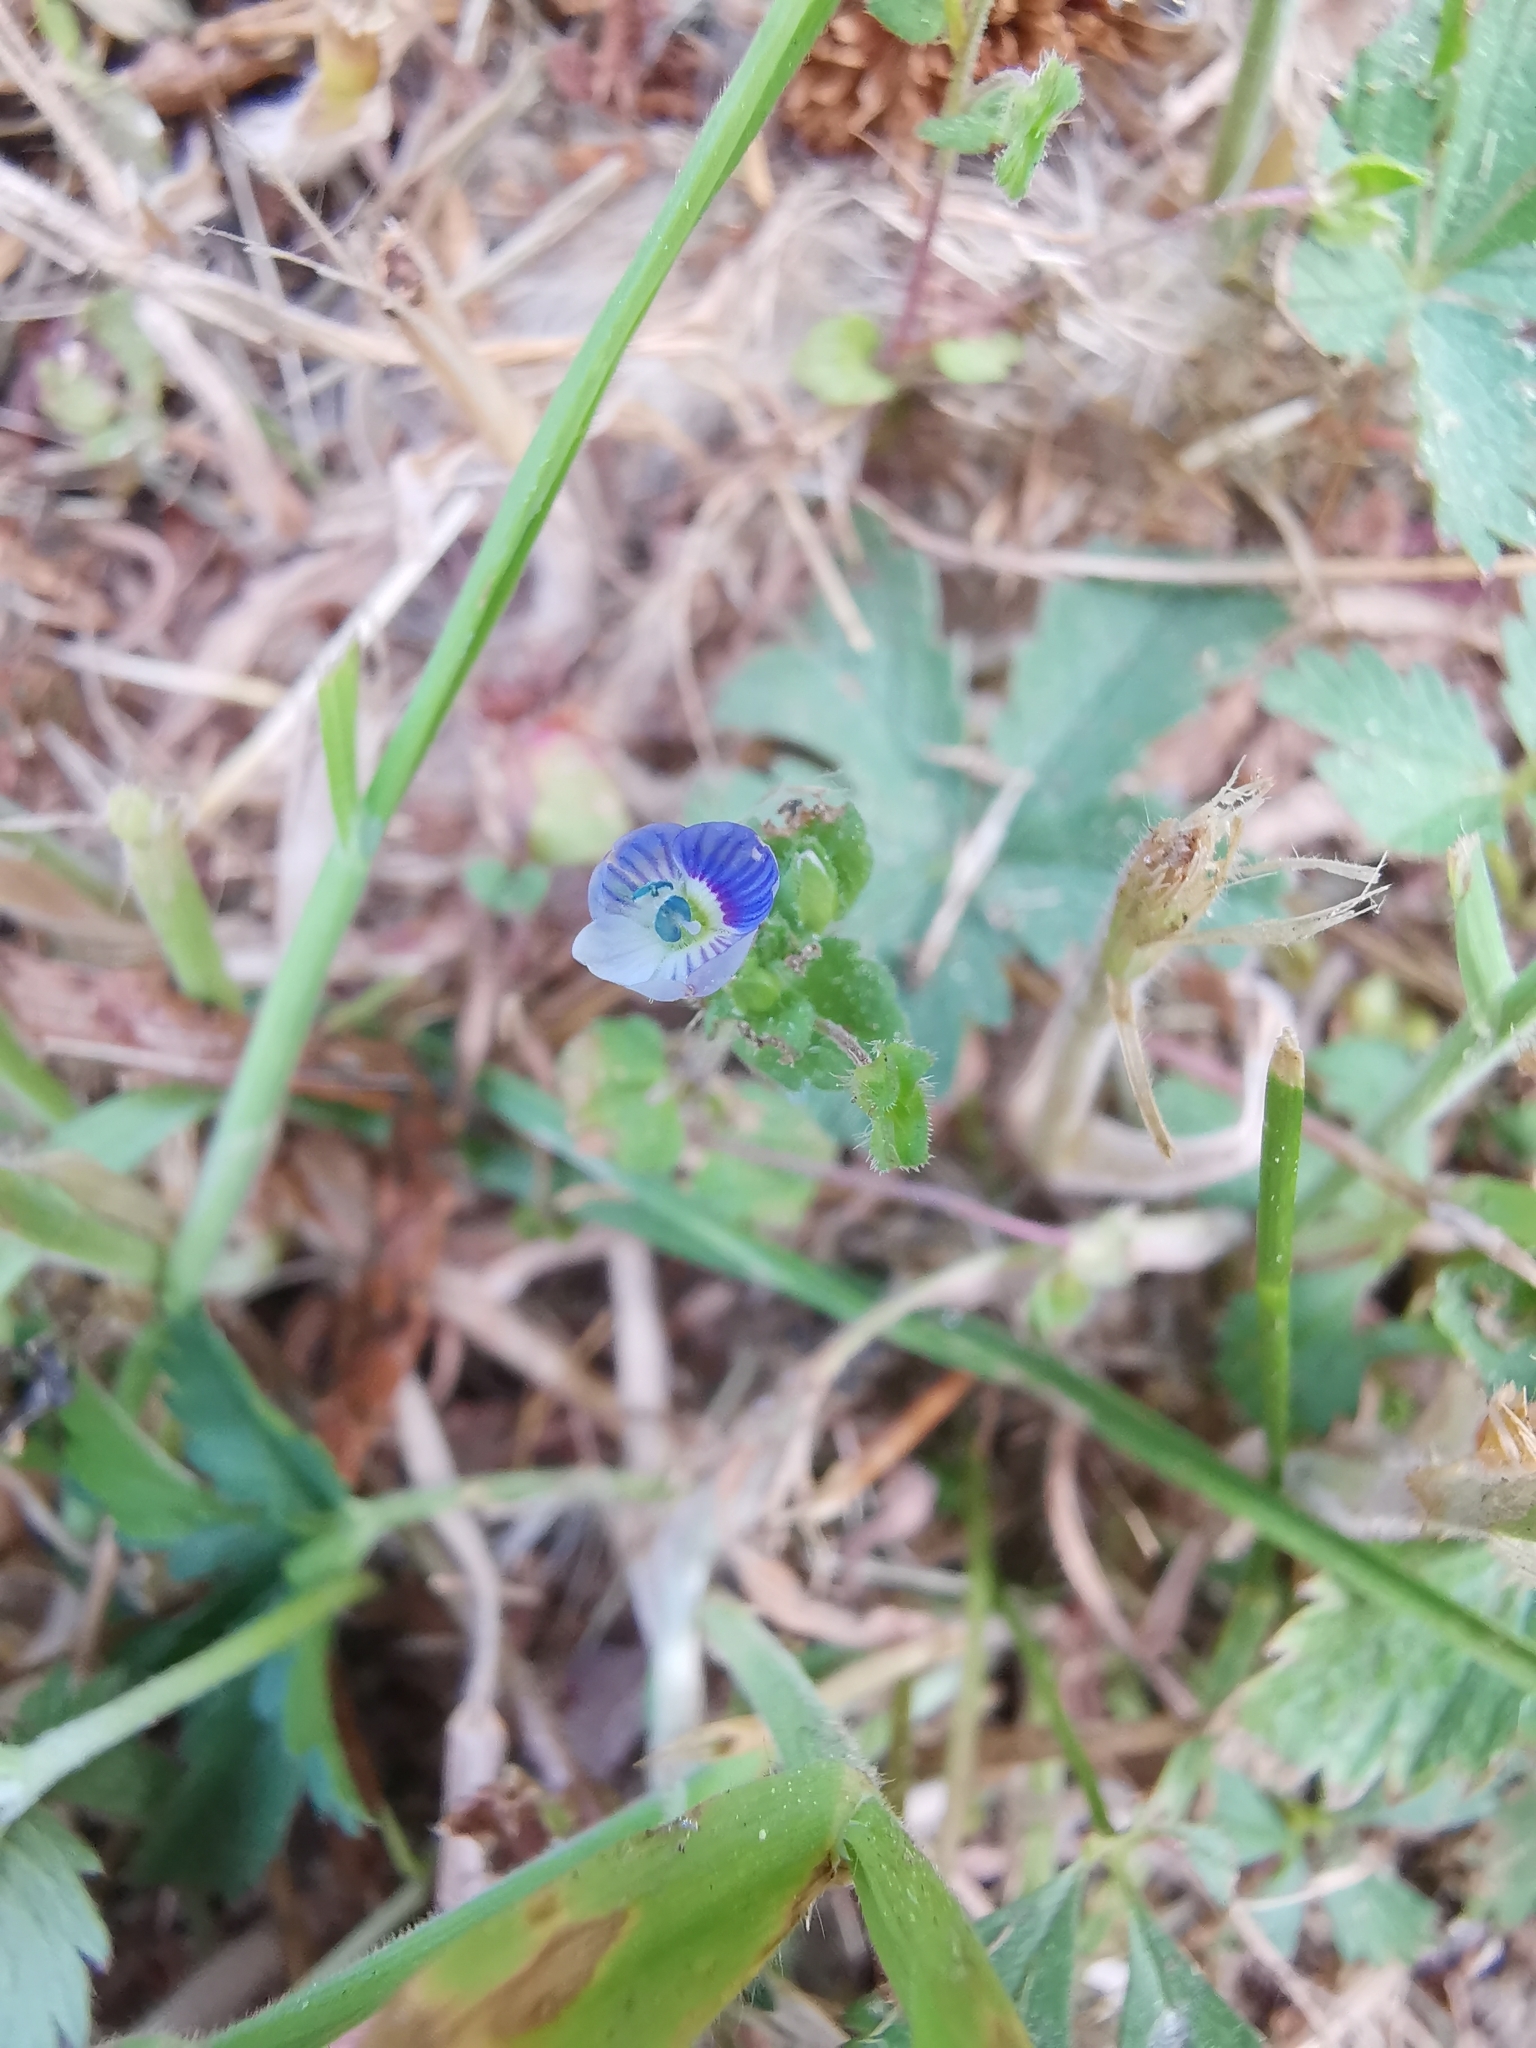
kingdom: Plantae
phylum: Tracheophyta
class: Magnoliopsida
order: Lamiales
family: Plantaginaceae
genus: Veronica
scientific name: Veronica persica
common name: Common field-speedwell
